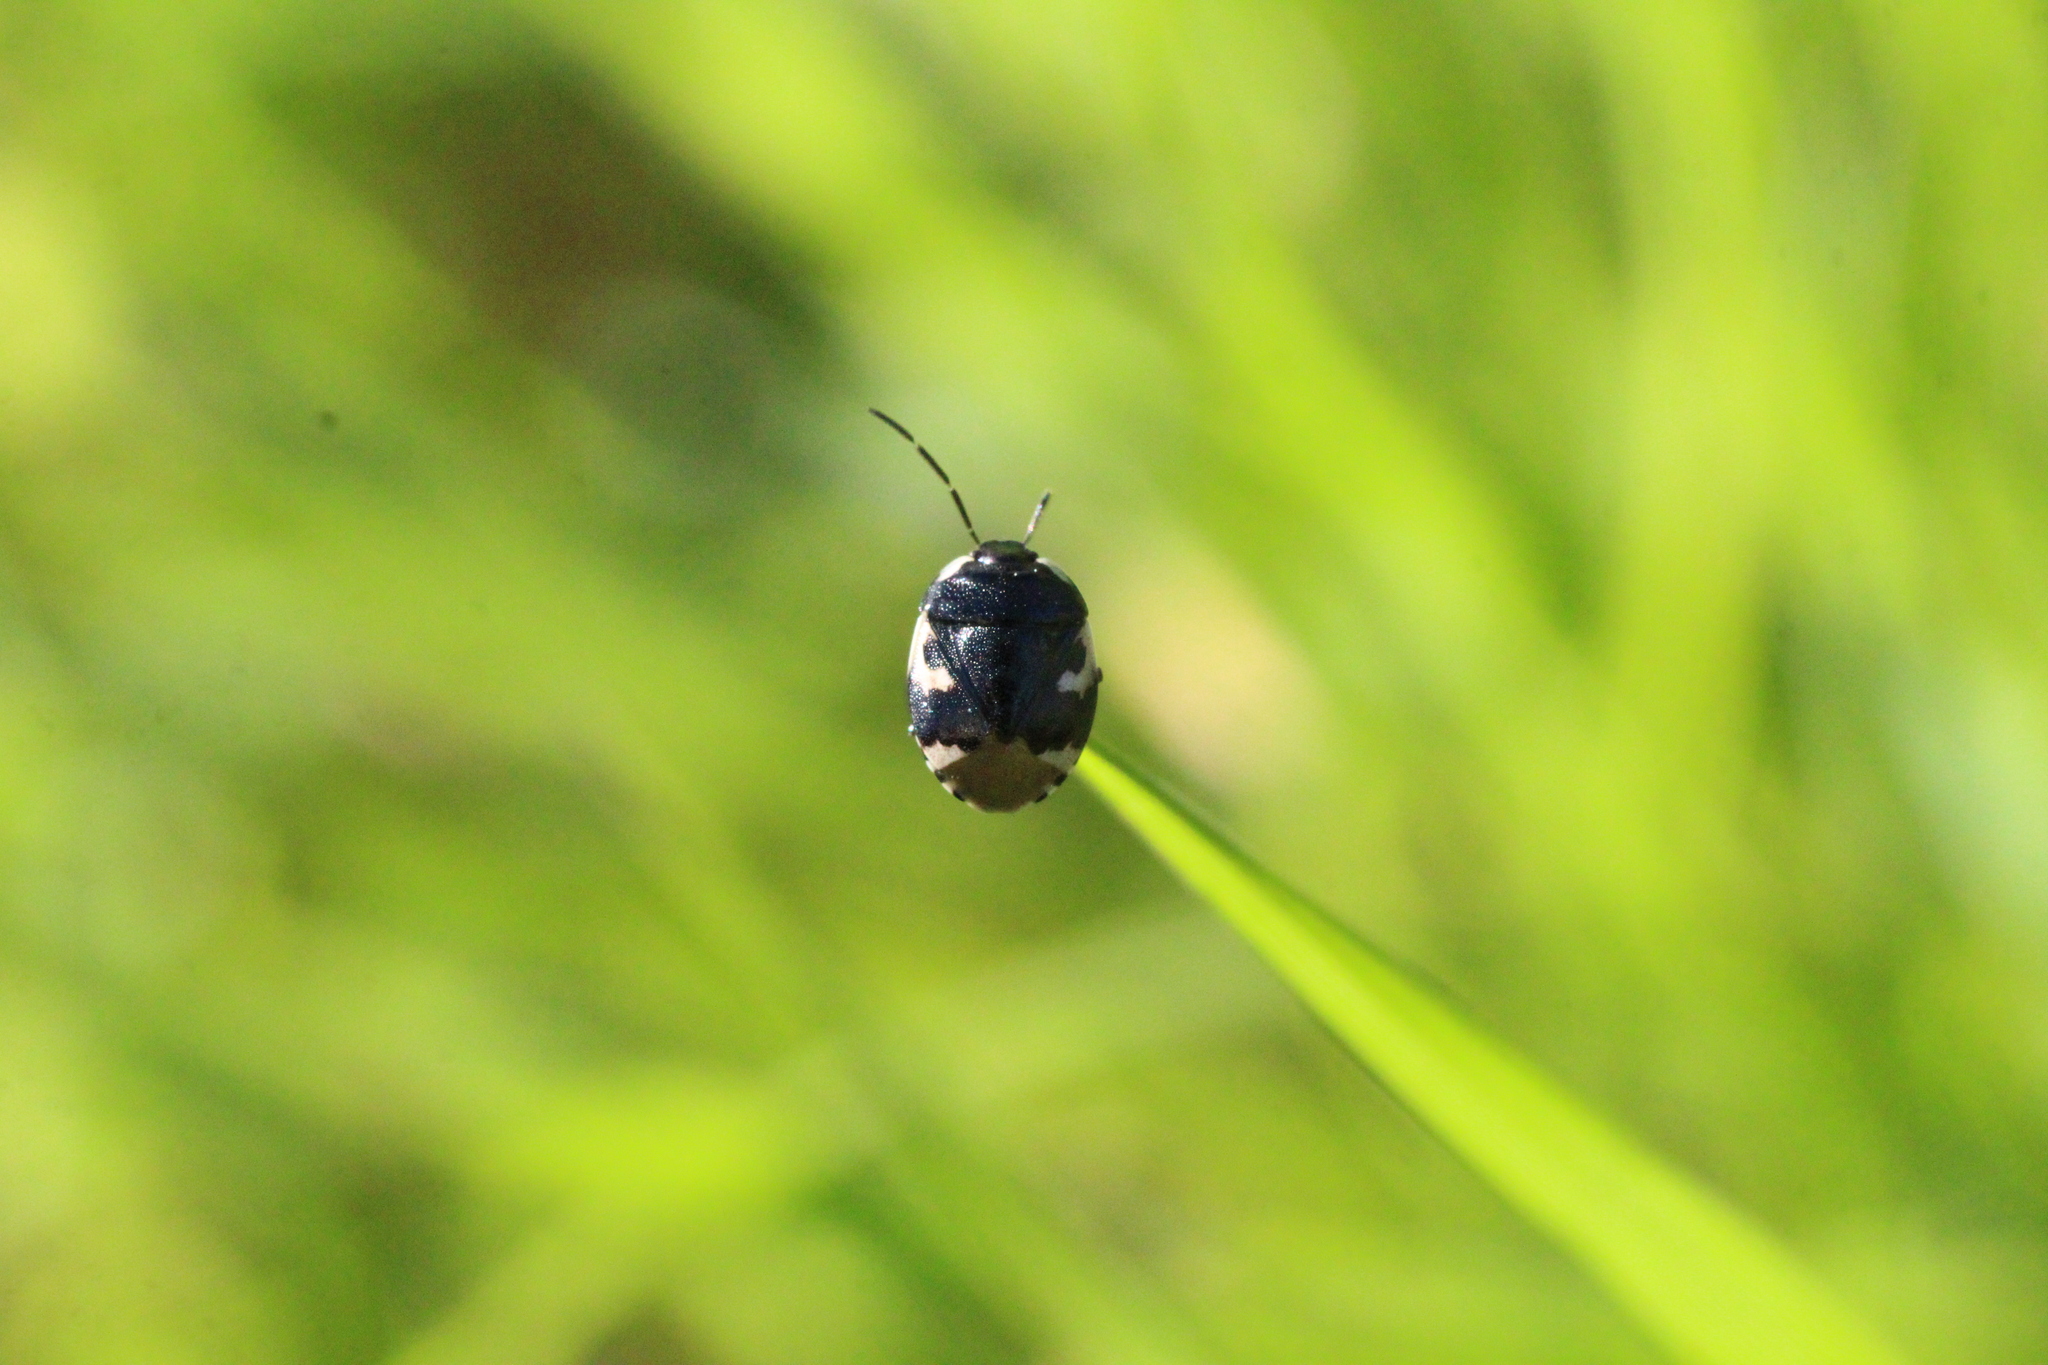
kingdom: Animalia
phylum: Arthropoda
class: Insecta
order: Hemiptera
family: Cydnidae
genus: Tritomegas
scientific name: Tritomegas bicolor
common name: Pied shieldbug
